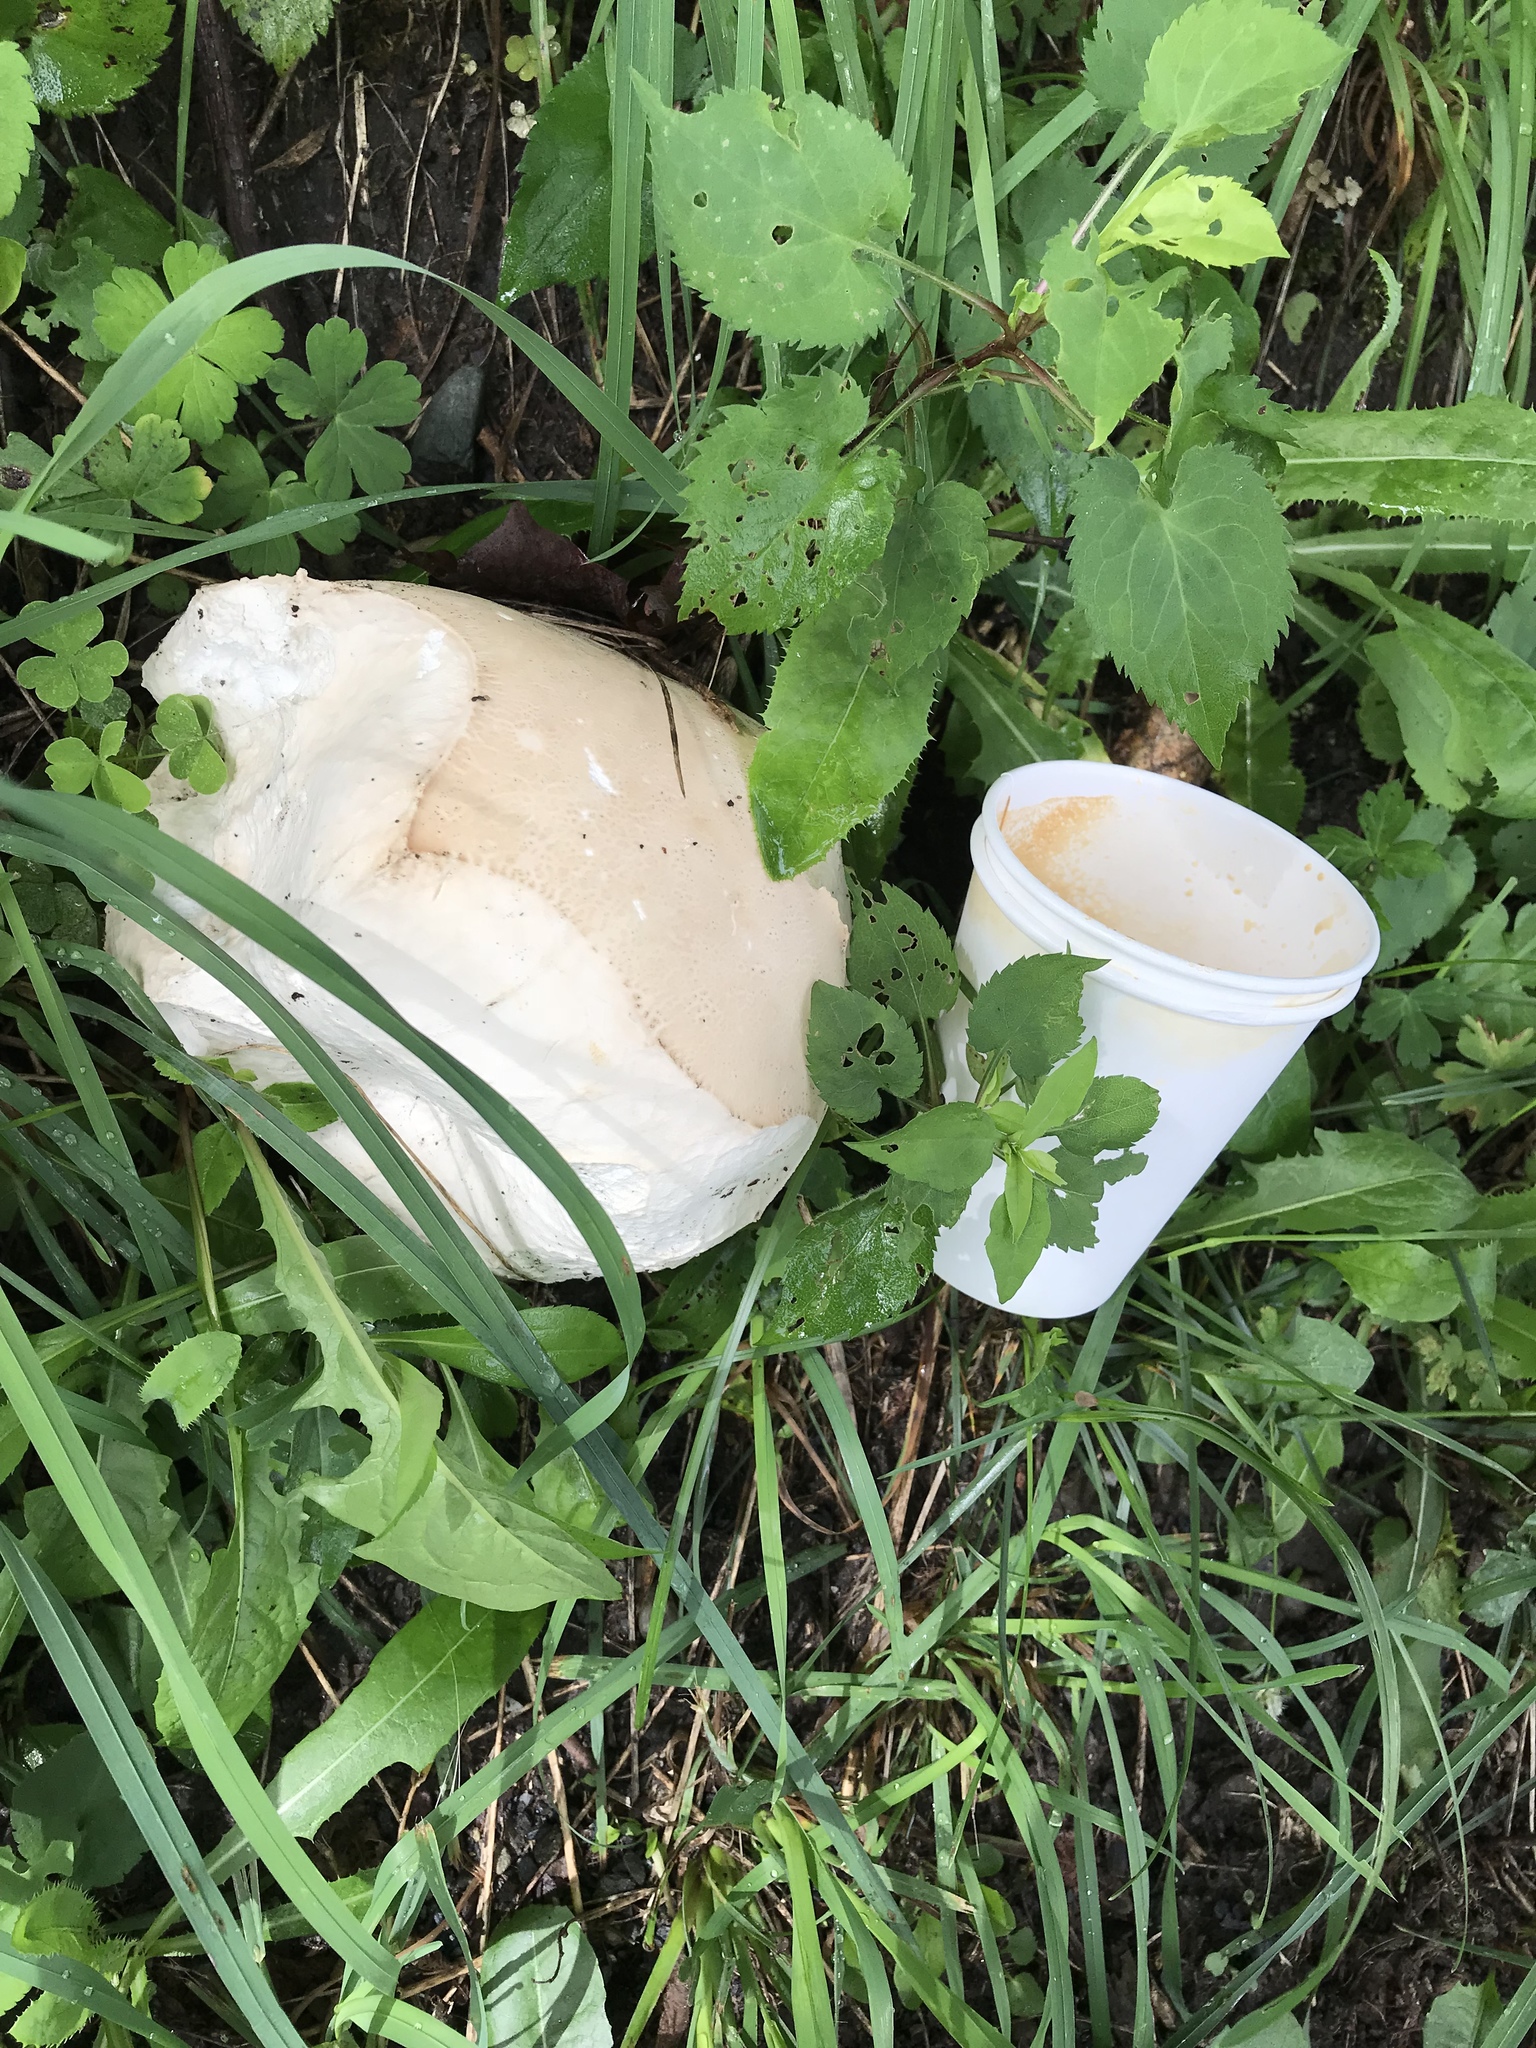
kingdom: Fungi
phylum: Basidiomycota
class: Agaricomycetes
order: Agaricales
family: Lycoperdaceae
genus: Calvatia
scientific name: Calvatia gigantea
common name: Giant puffball
